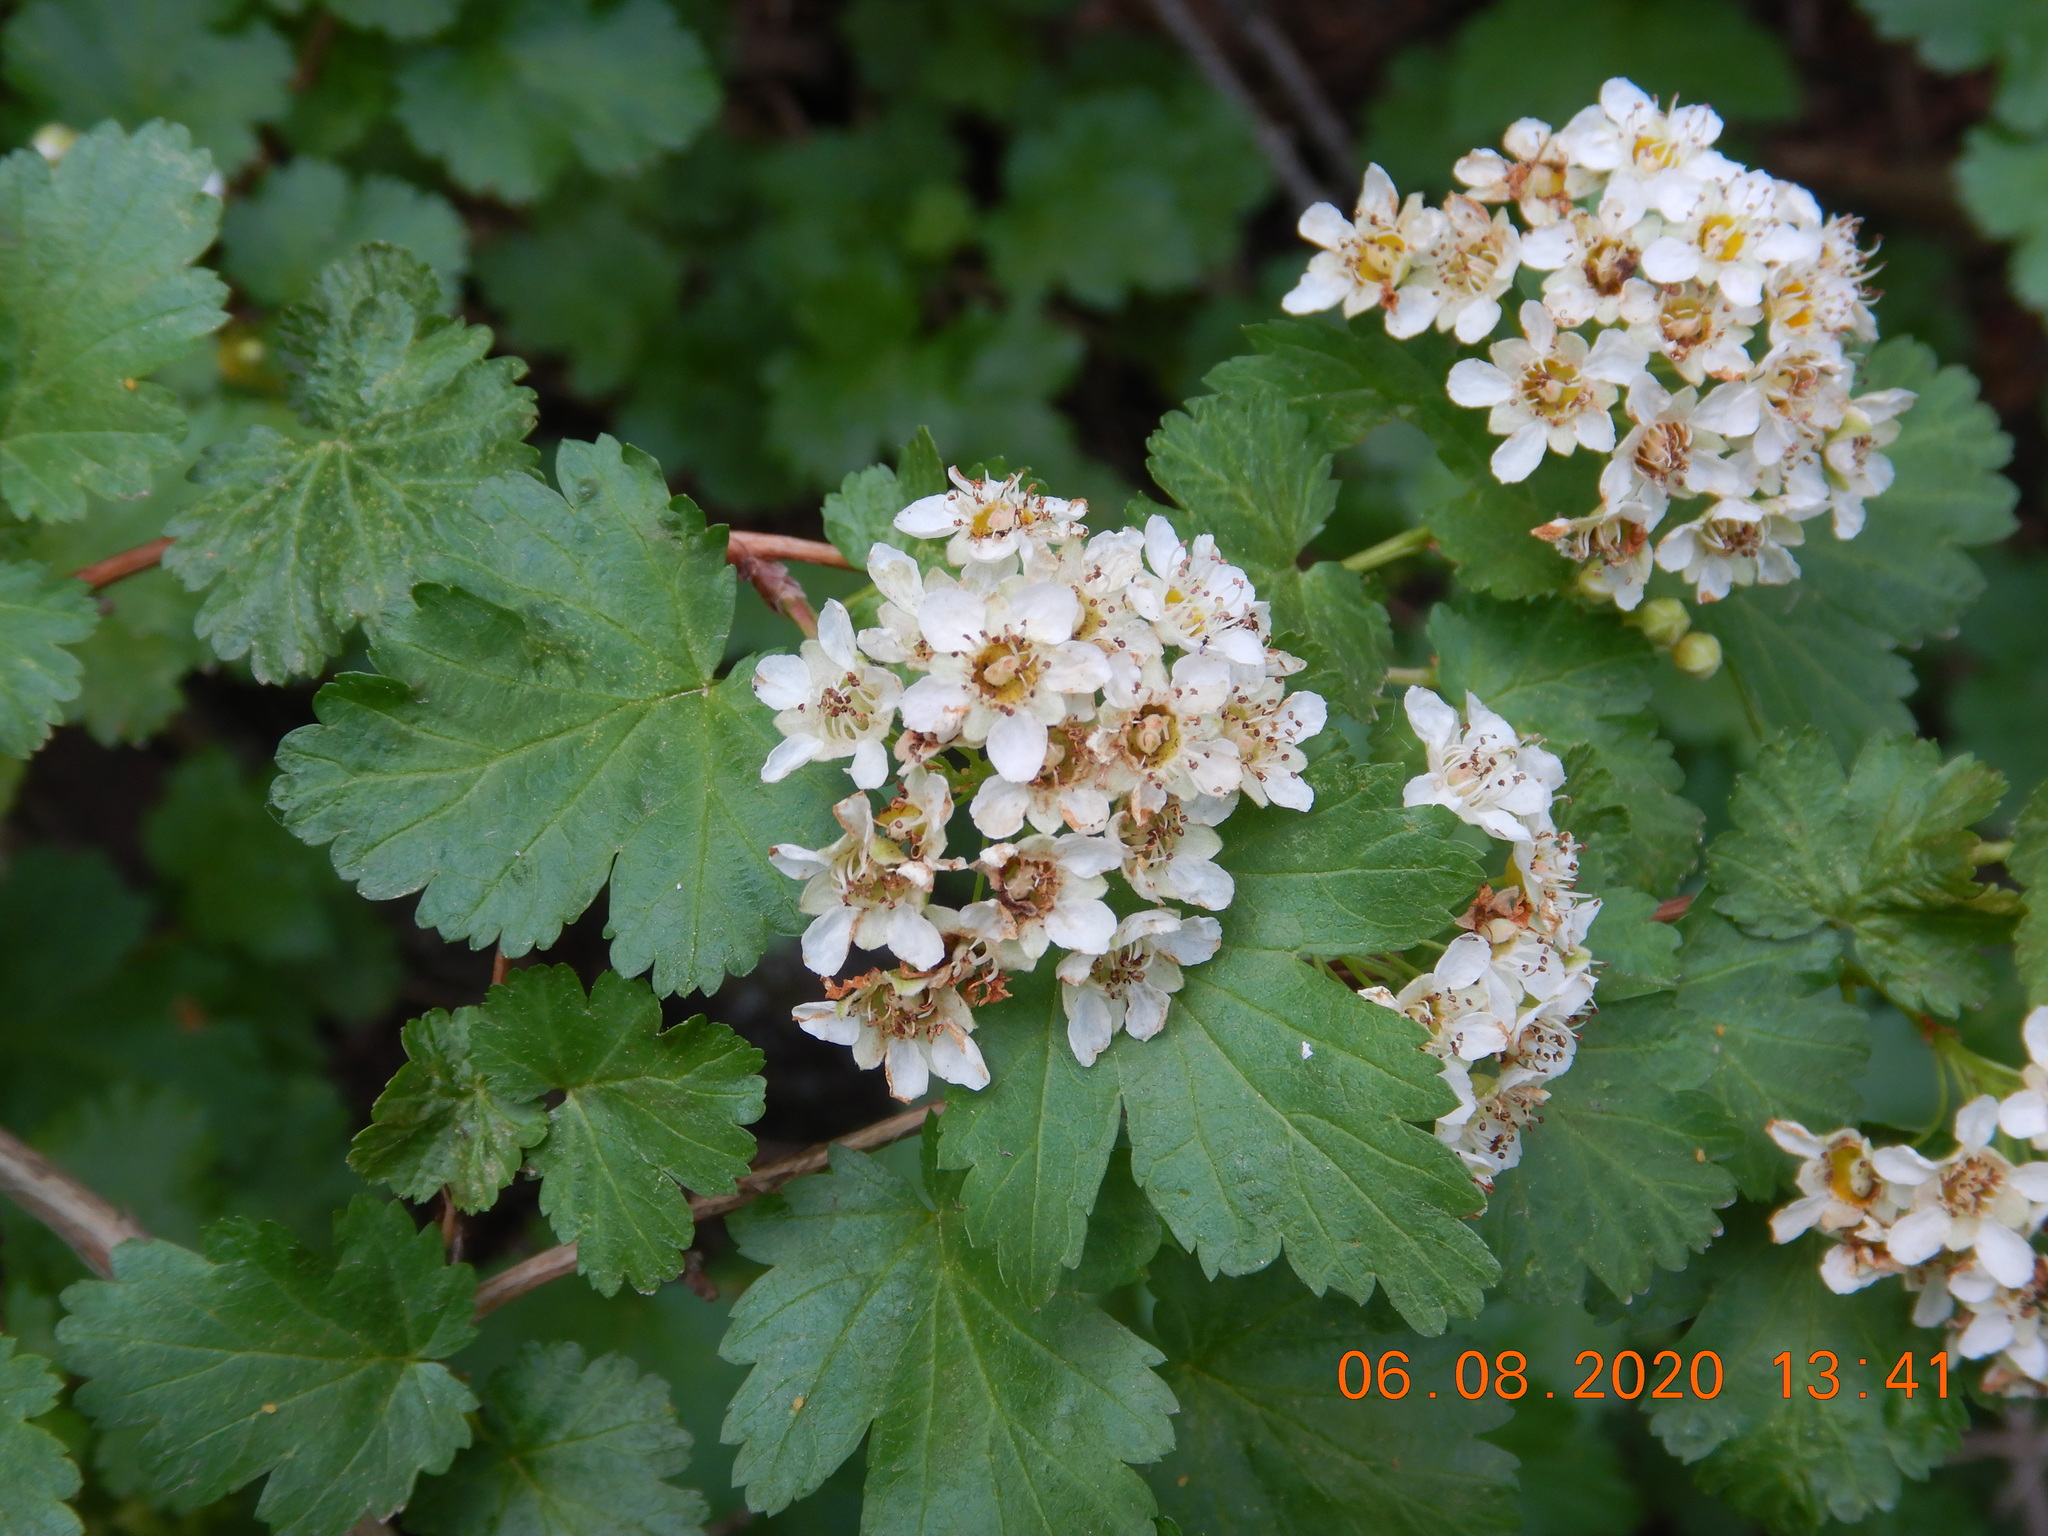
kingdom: Plantae
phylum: Tracheophyta
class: Magnoliopsida
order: Rosales
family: Rosaceae
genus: Physocarpus
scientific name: Physocarpus monogynus
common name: Mountain ninebark
